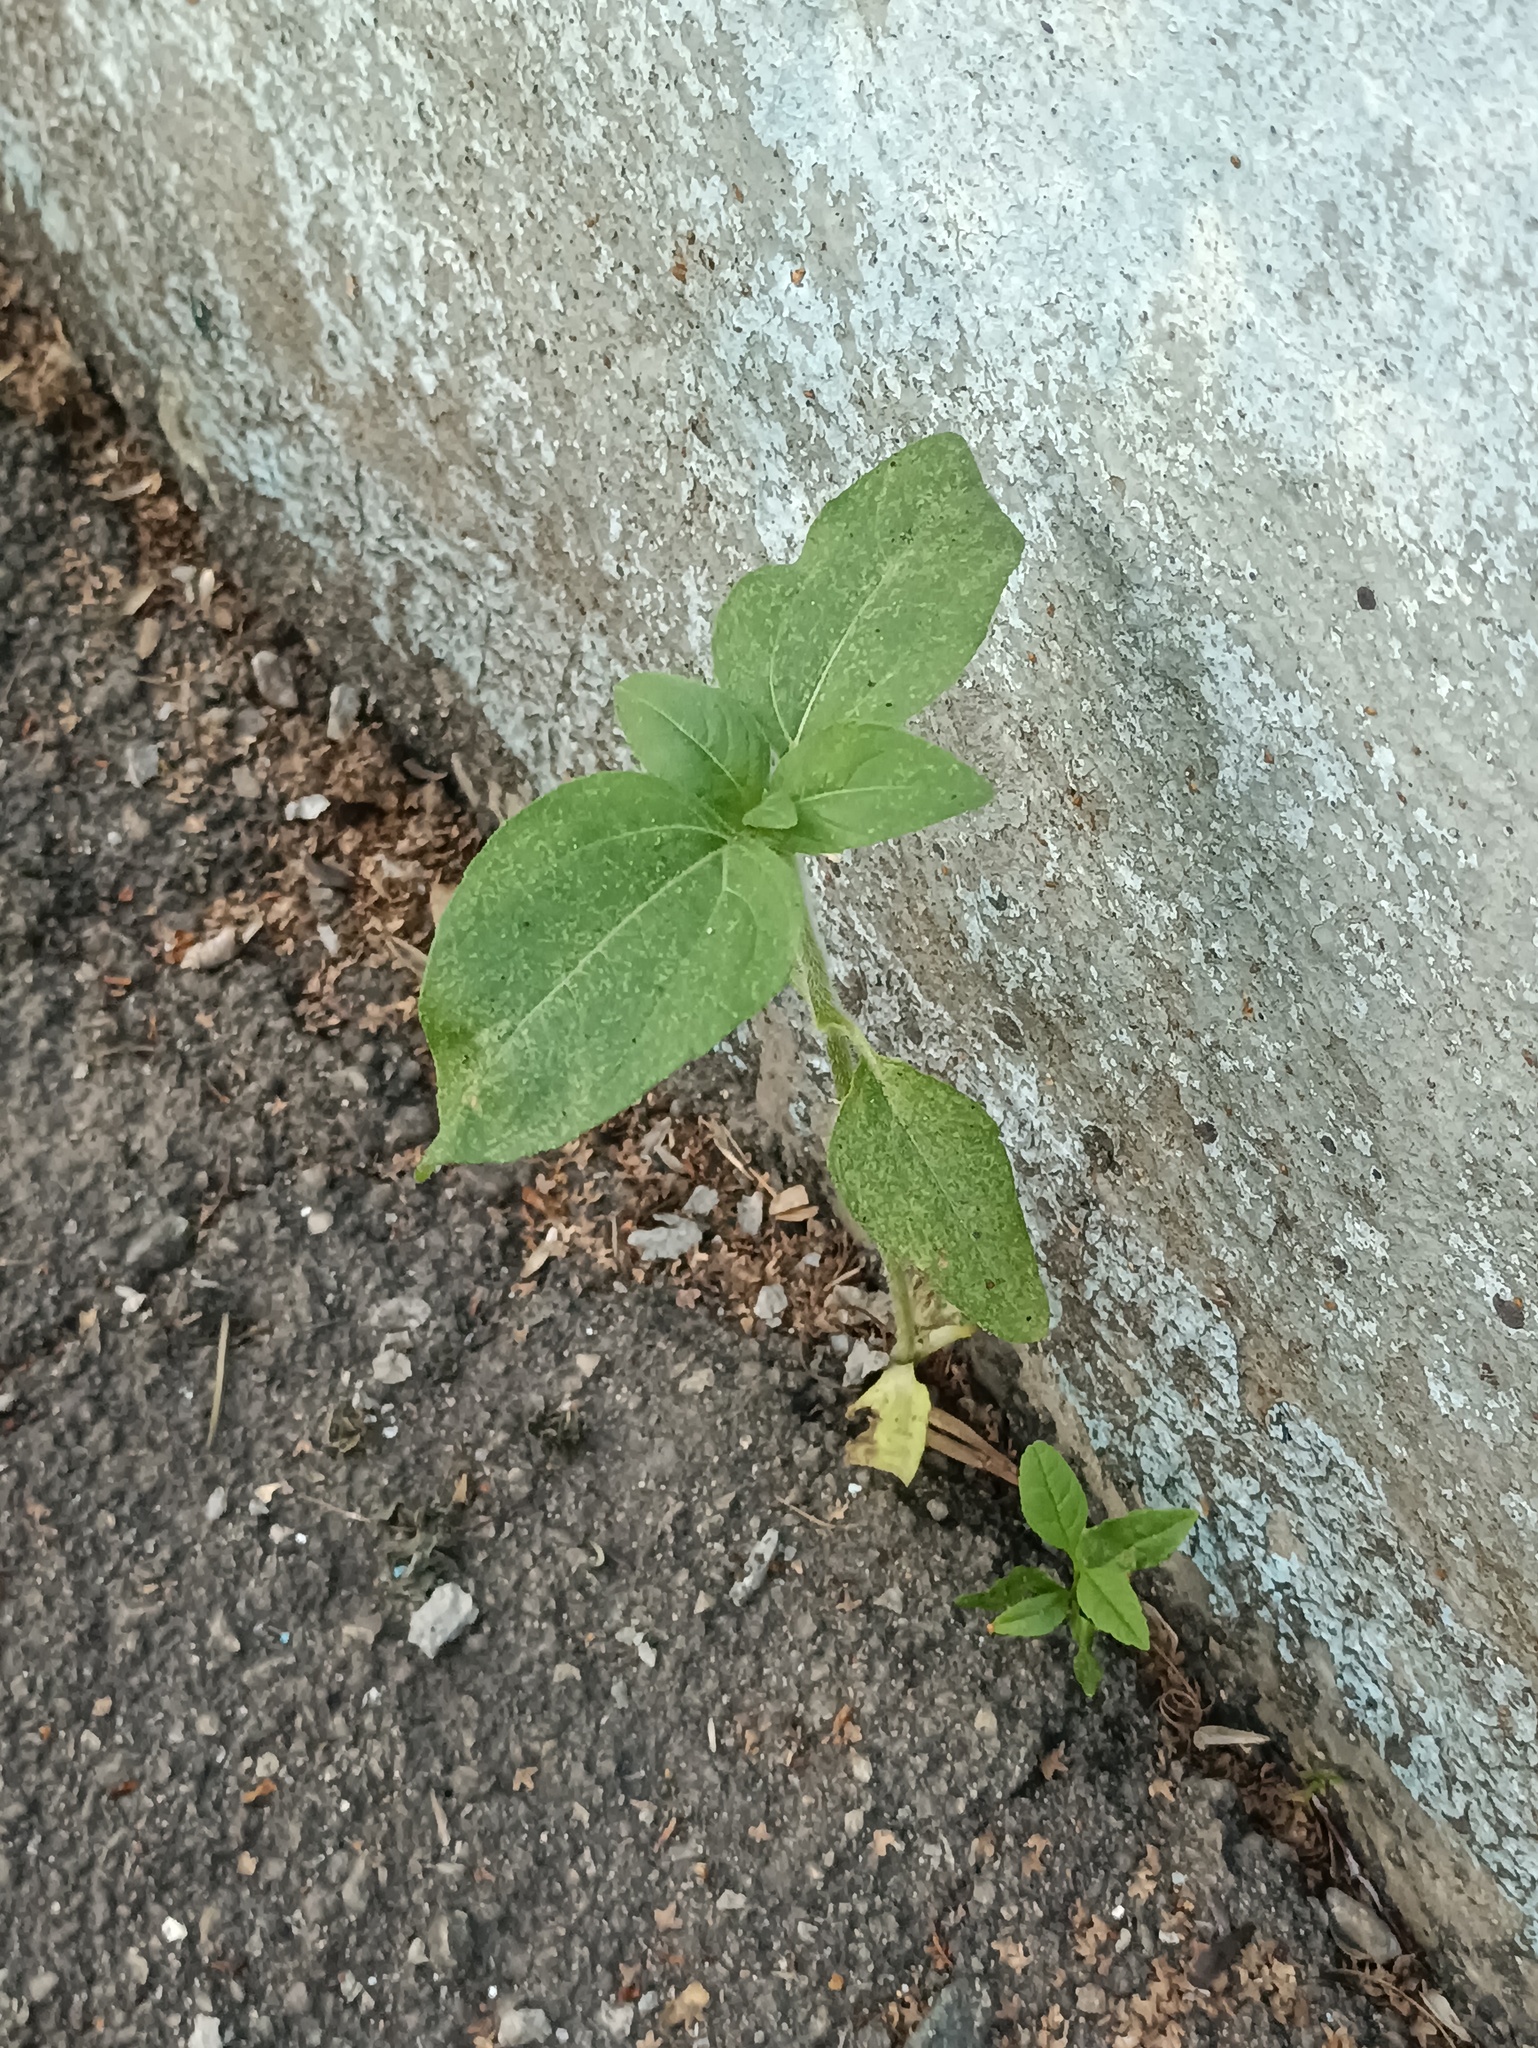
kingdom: Plantae
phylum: Tracheophyta
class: Magnoliopsida
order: Asterales
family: Asteraceae
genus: Helianthus
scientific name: Helianthus annuus
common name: Sunflower
